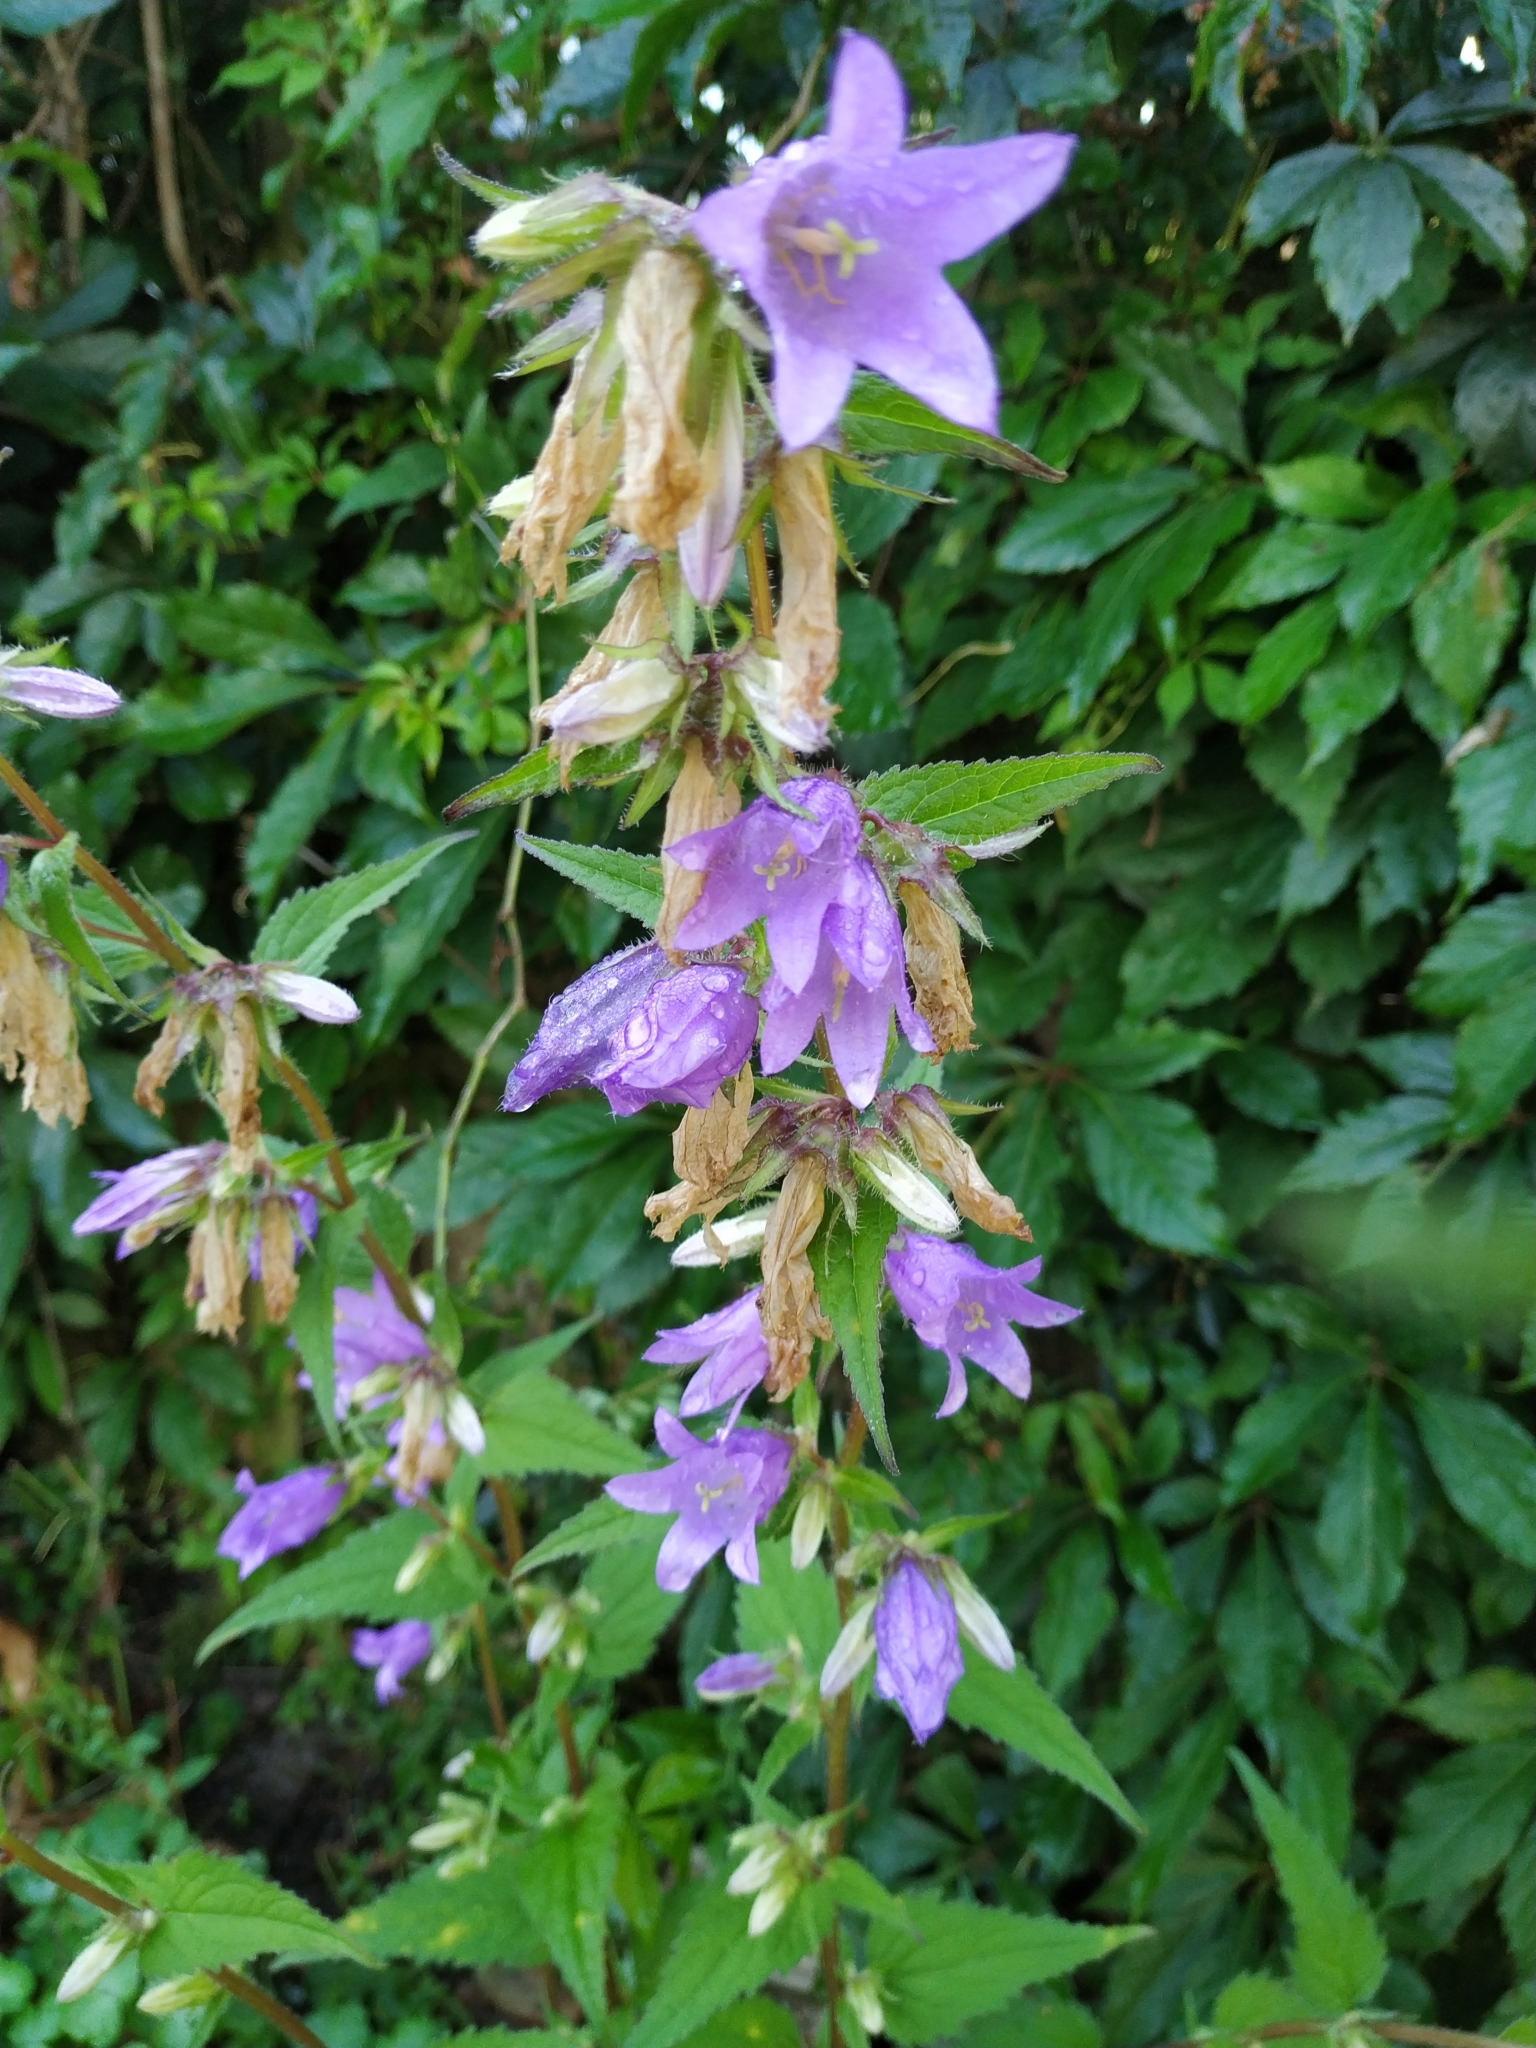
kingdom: Plantae
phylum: Tracheophyta
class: Magnoliopsida
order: Asterales
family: Campanulaceae
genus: Campanula
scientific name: Campanula trachelium
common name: Nettle-leaved bellflower
